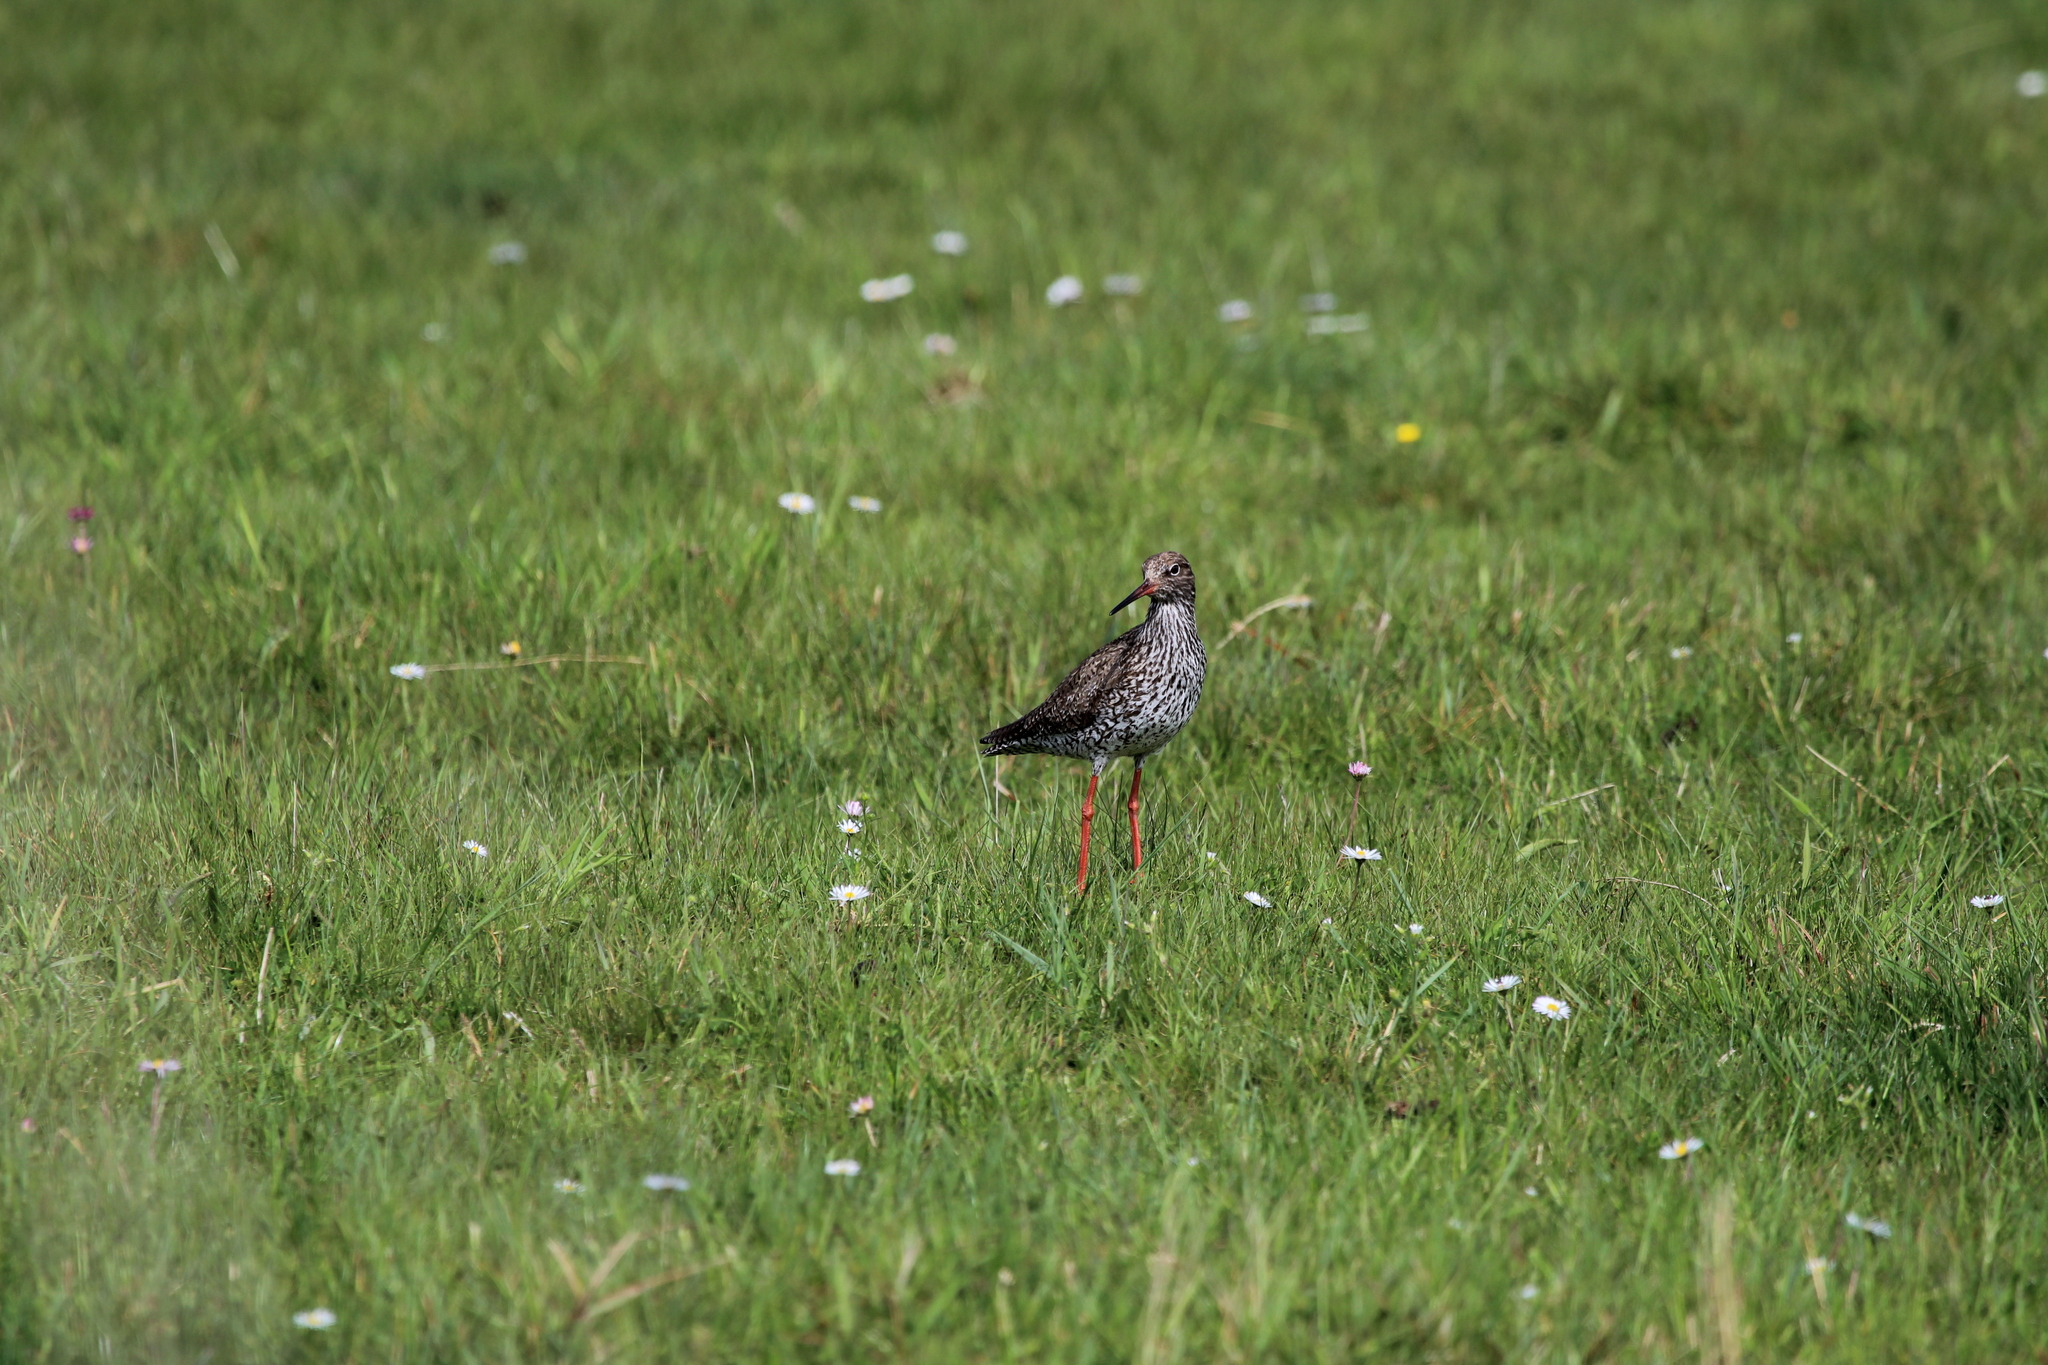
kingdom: Animalia
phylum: Chordata
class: Aves
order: Charadriiformes
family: Scolopacidae
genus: Tringa
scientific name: Tringa totanus
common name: Common redshank
